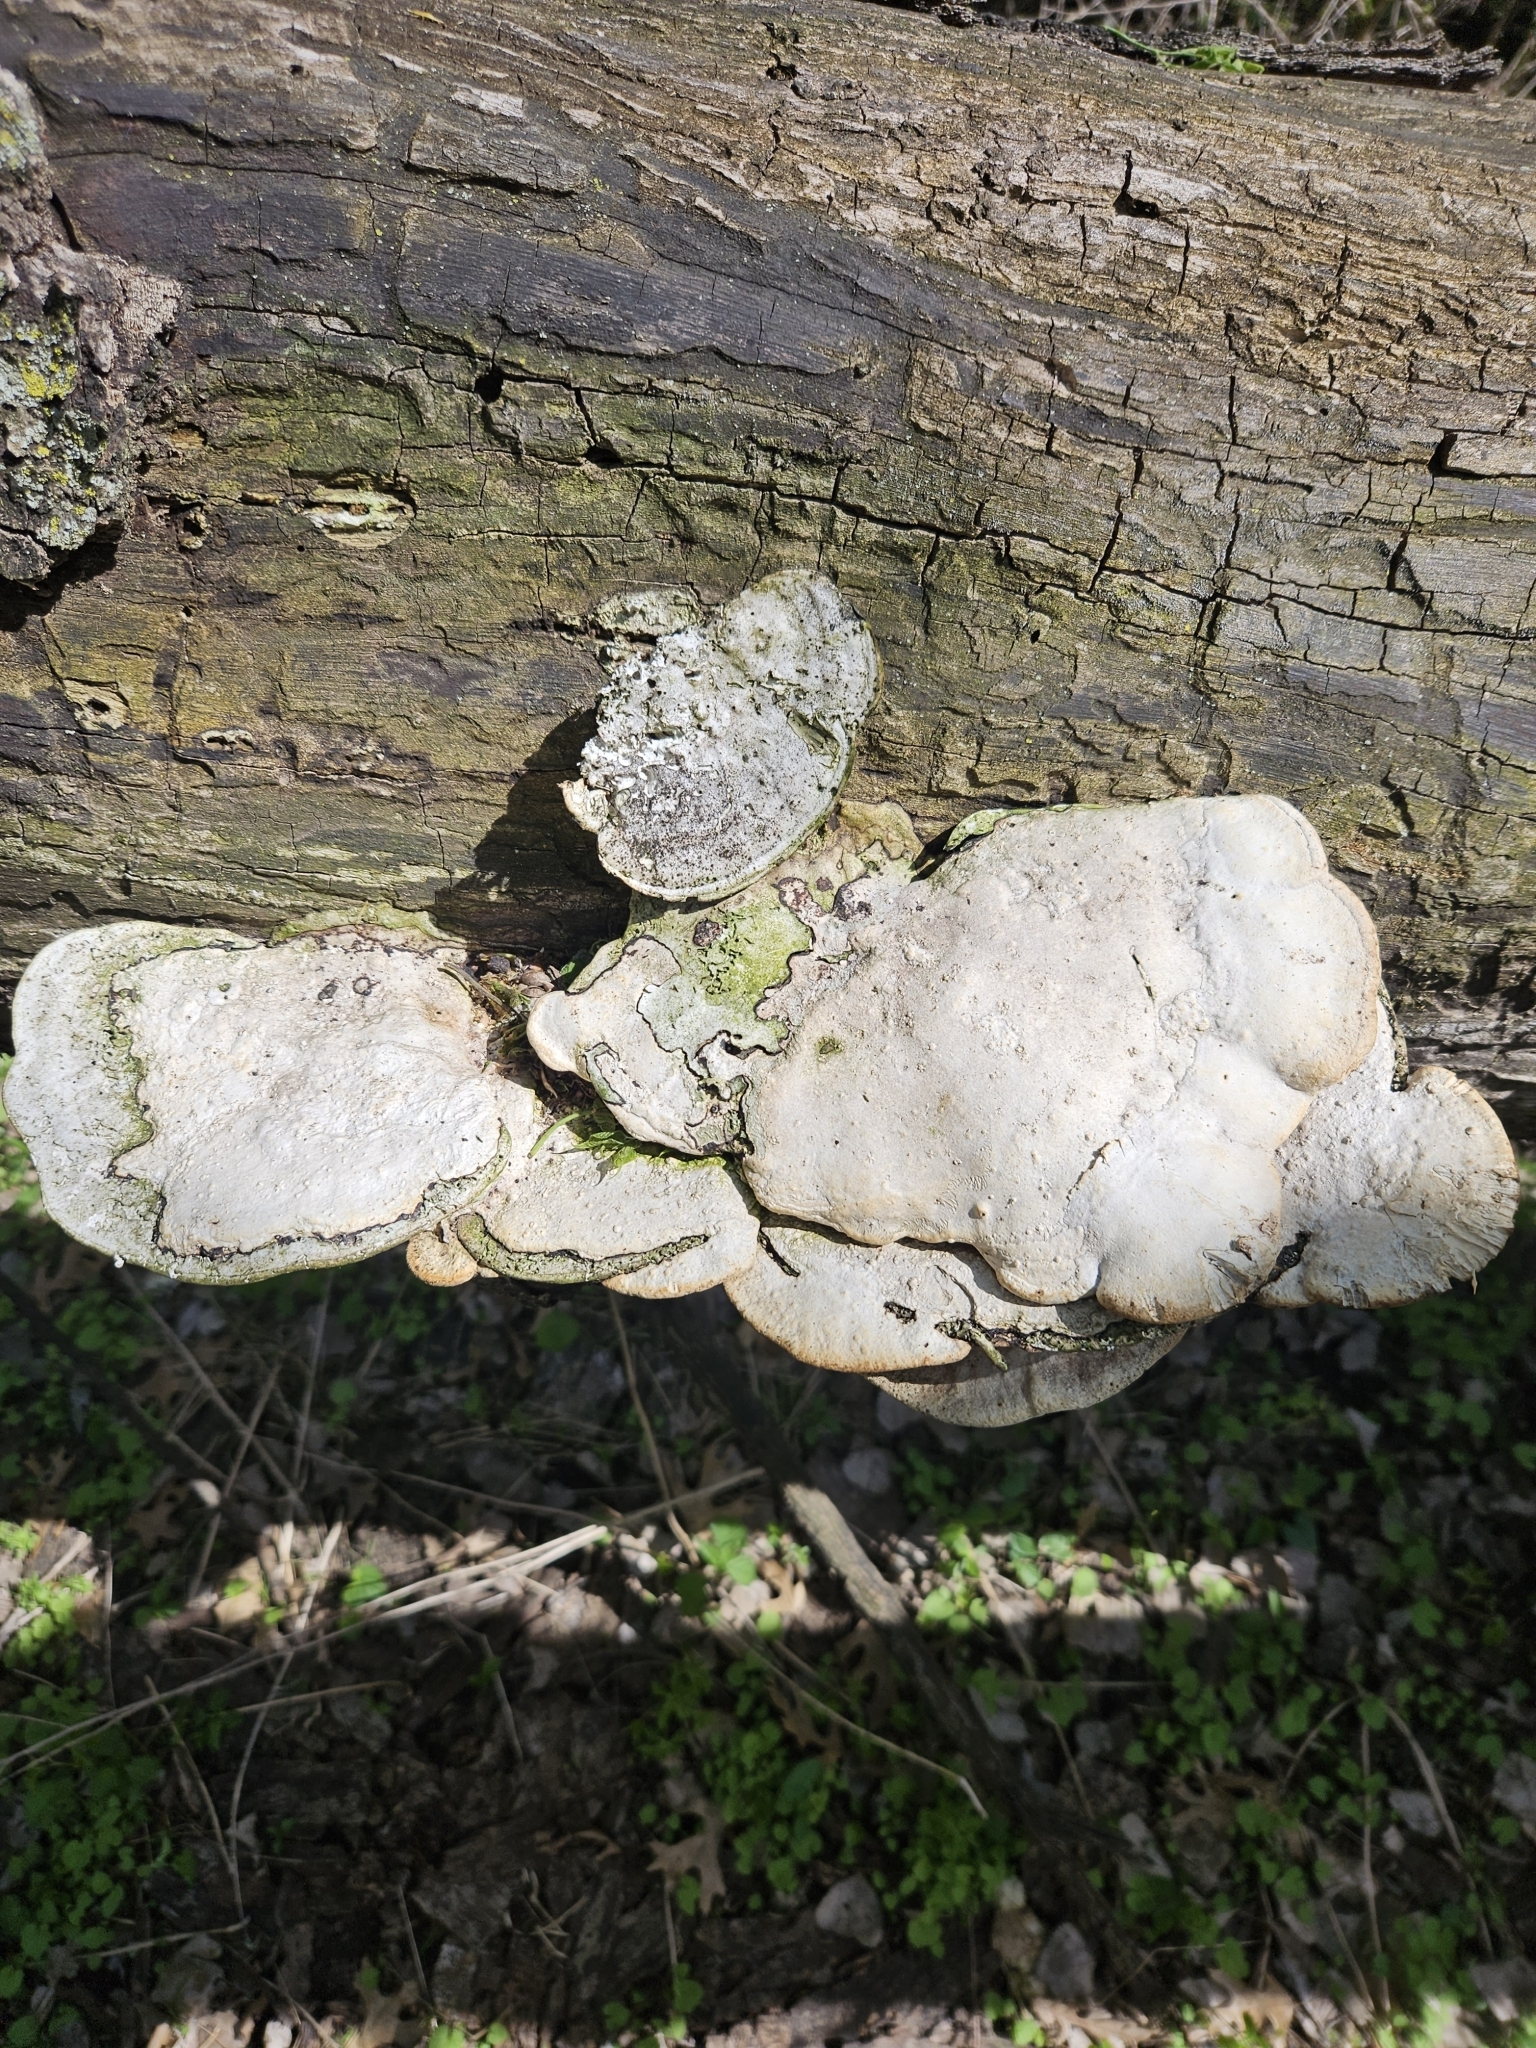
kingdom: Fungi
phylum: Basidiomycota
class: Agaricomycetes
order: Polyporales
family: Polyporaceae
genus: Trametes
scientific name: Trametes
